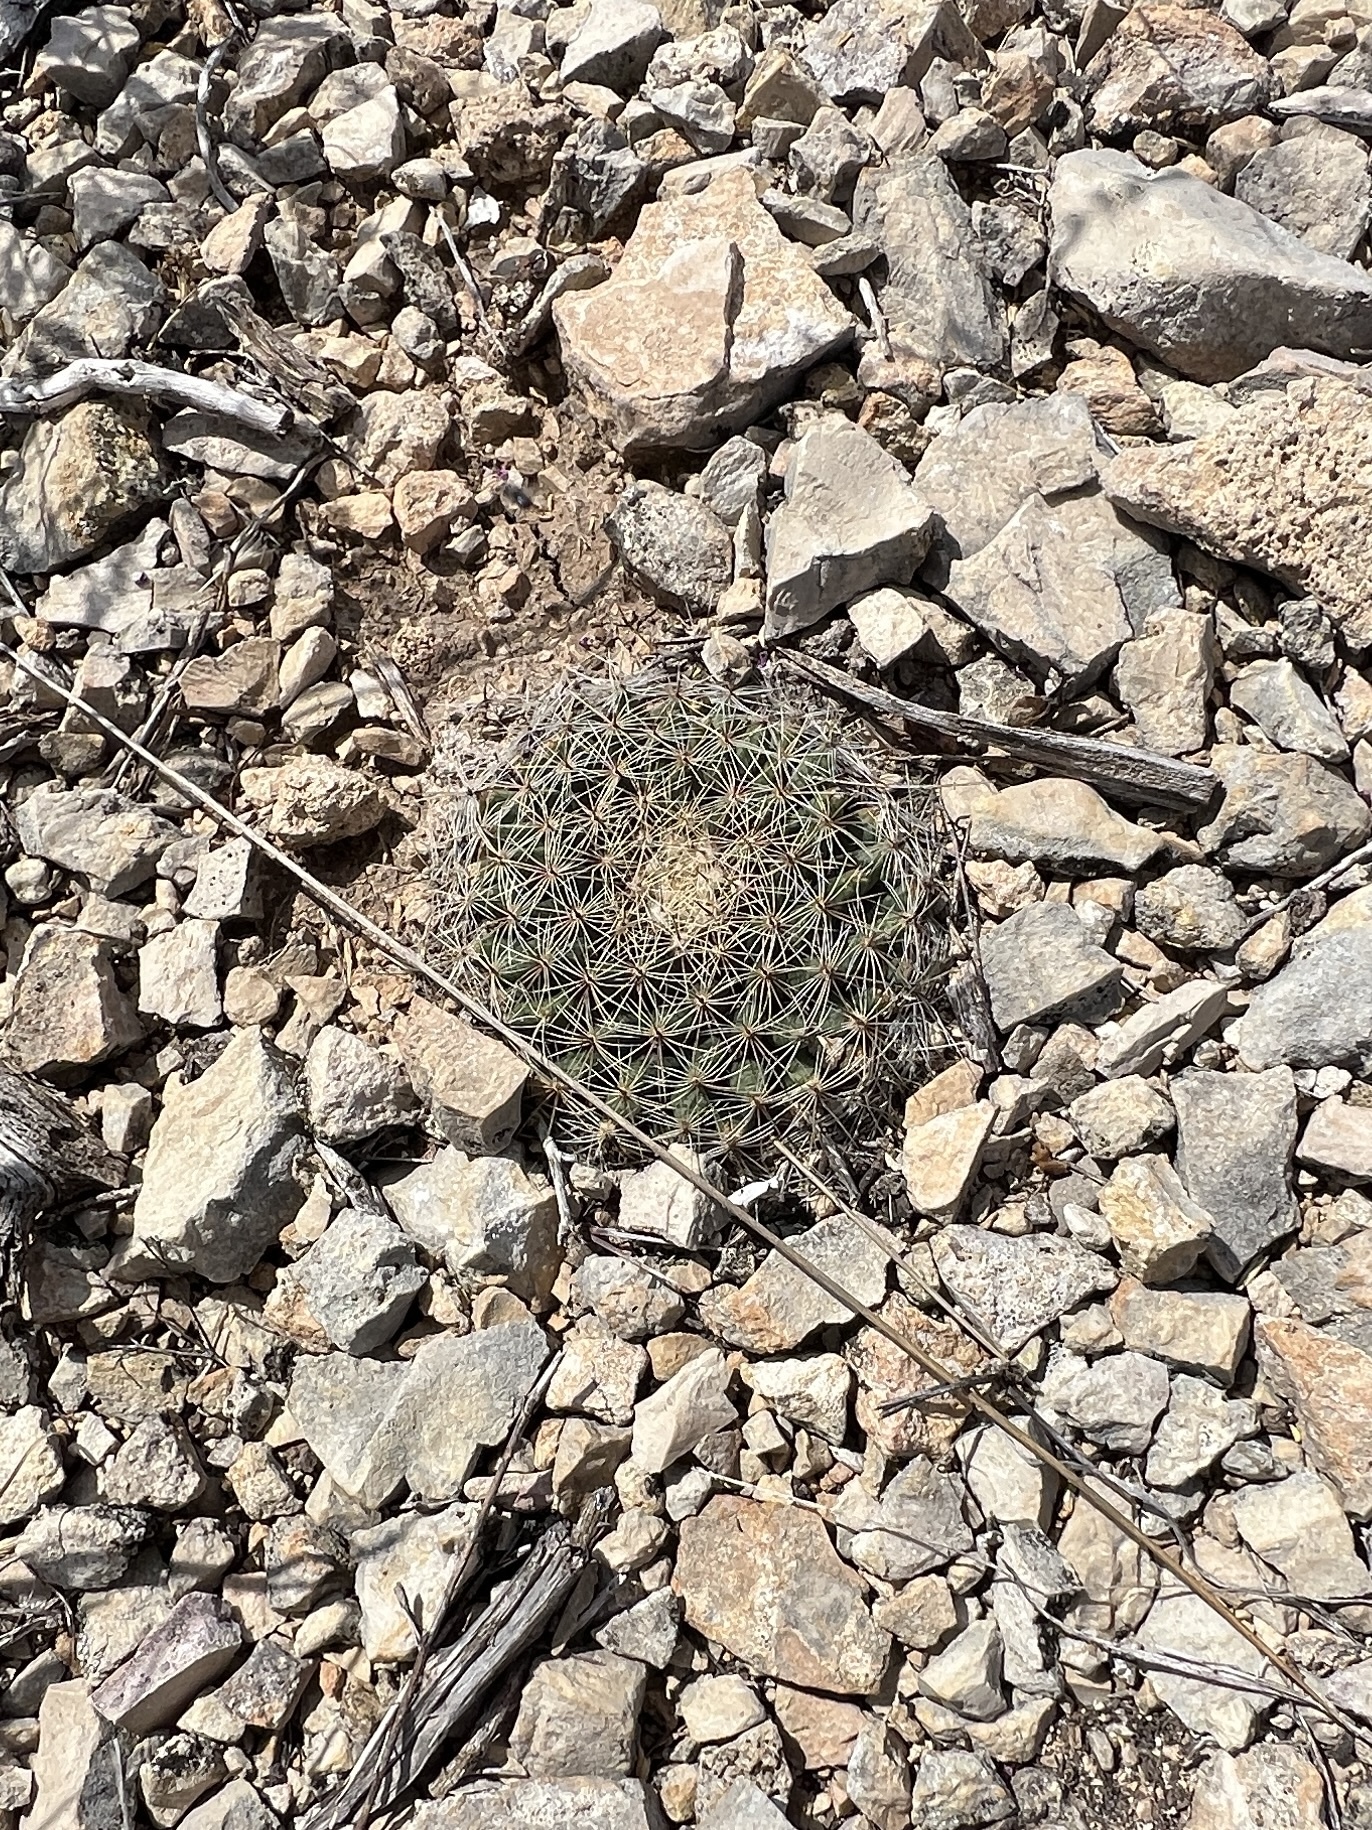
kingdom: Plantae
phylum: Tracheophyta
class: Magnoliopsida
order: Caryophyllales
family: Cactaceae
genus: Mammillaria
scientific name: Mammillaria heyderi
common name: Little nipple cactus
